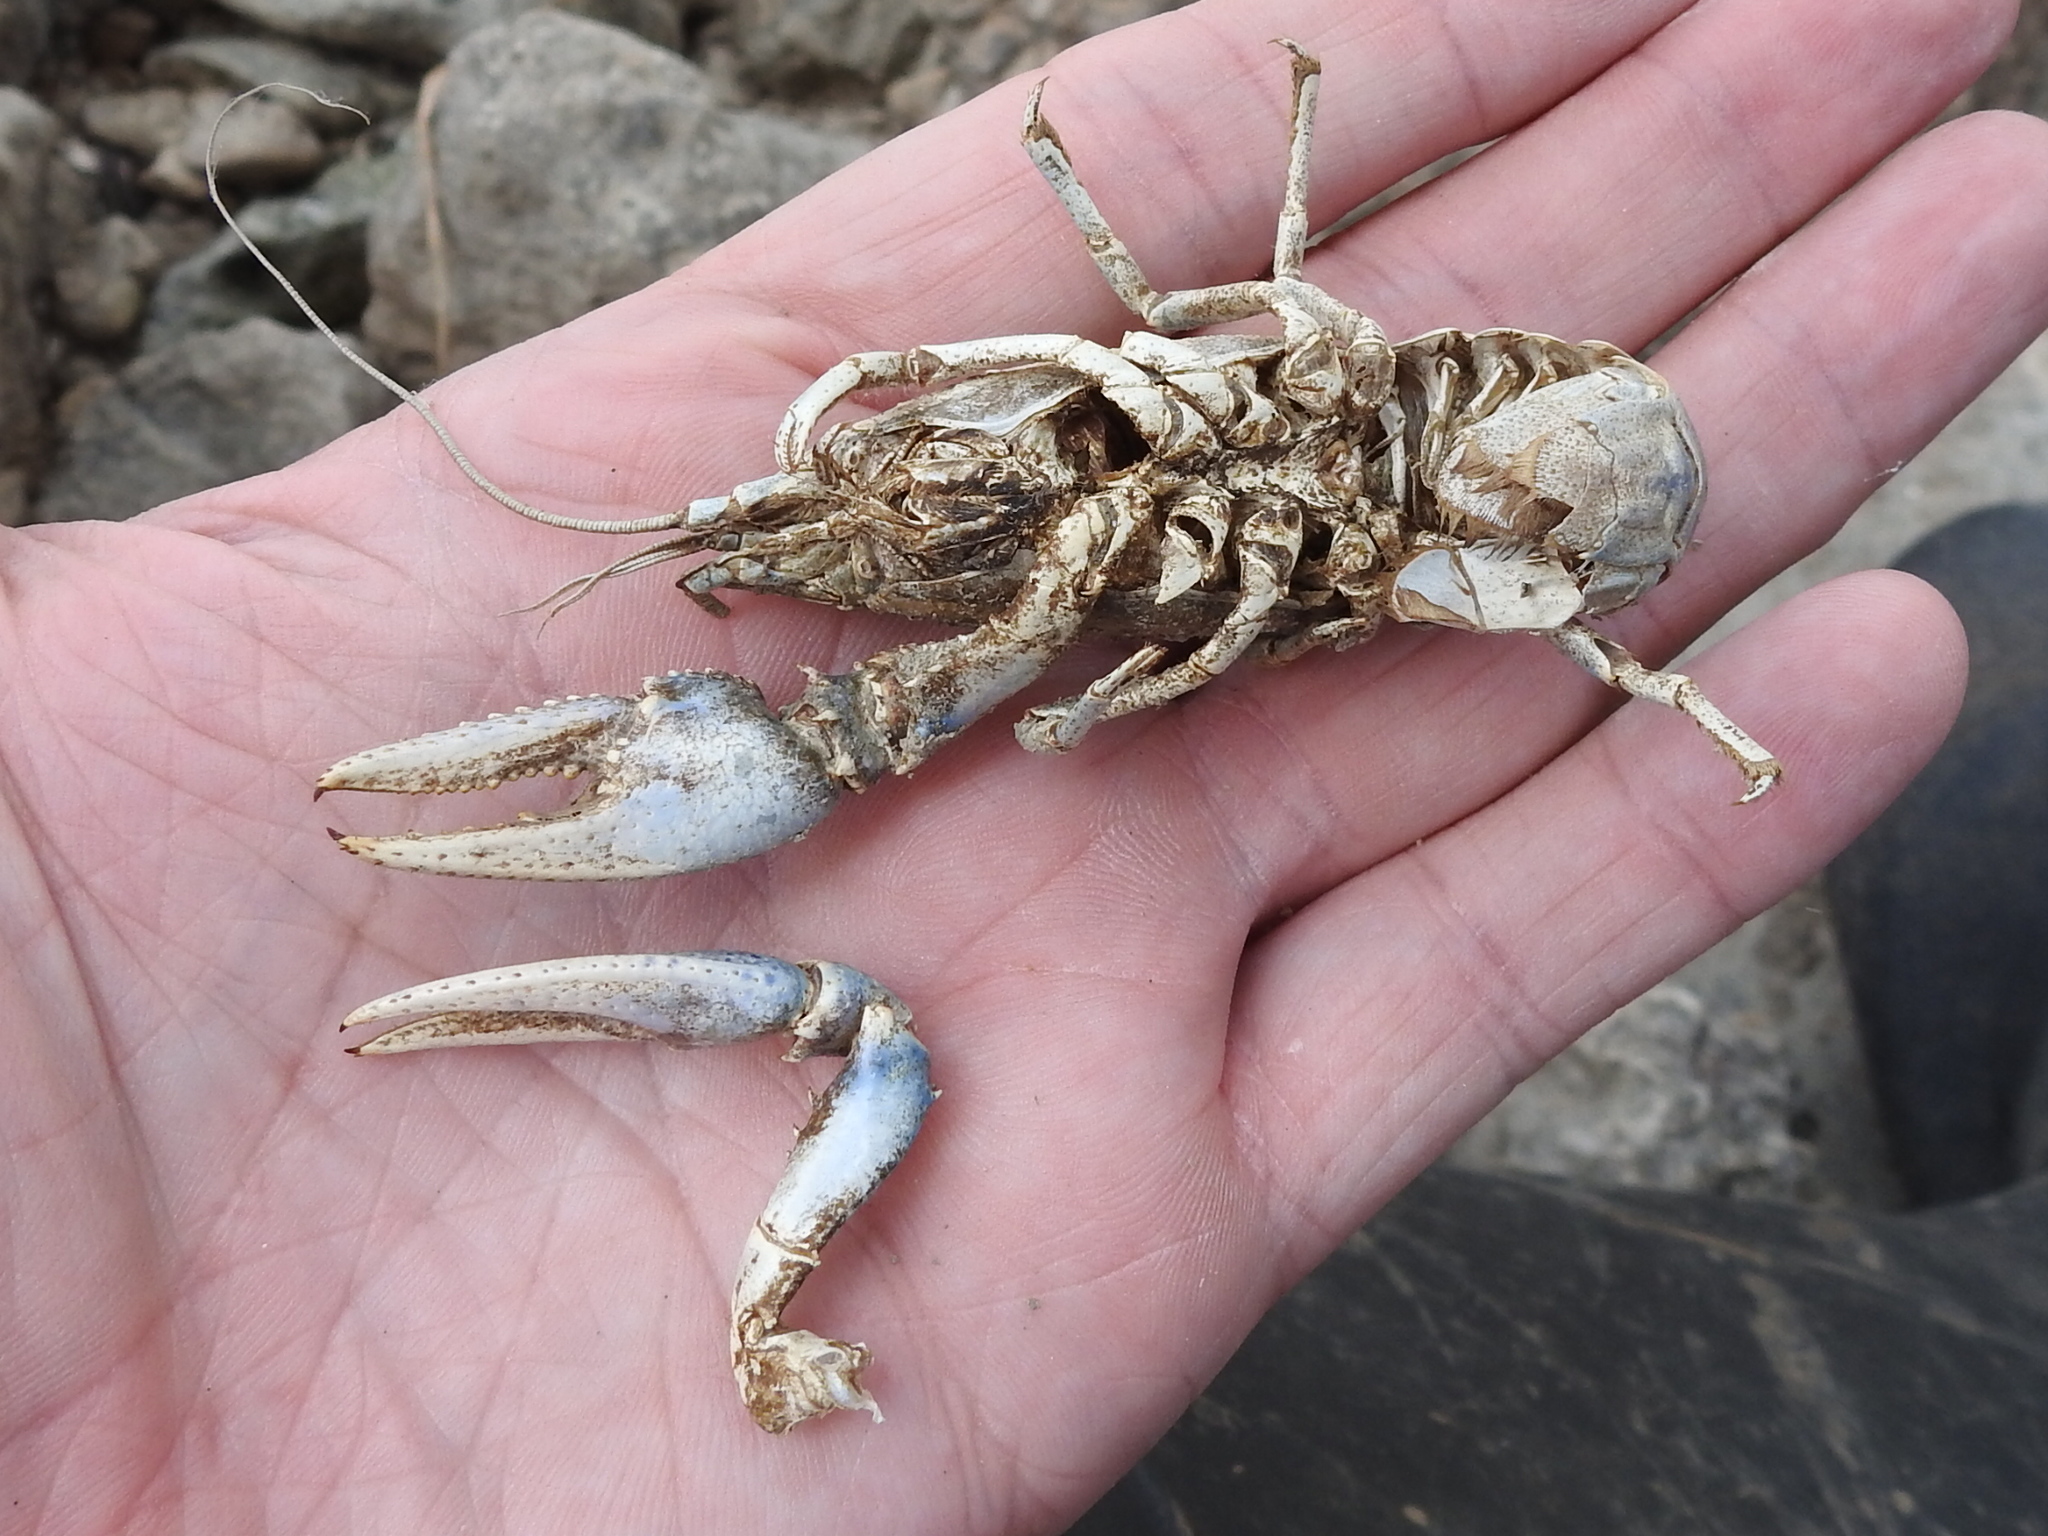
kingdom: Animalia
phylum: Arthropoda
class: Malacostraca
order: Decapoda
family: Cambaridae
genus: Faxonius
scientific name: Faxonius virilis
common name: Virile crayfish
